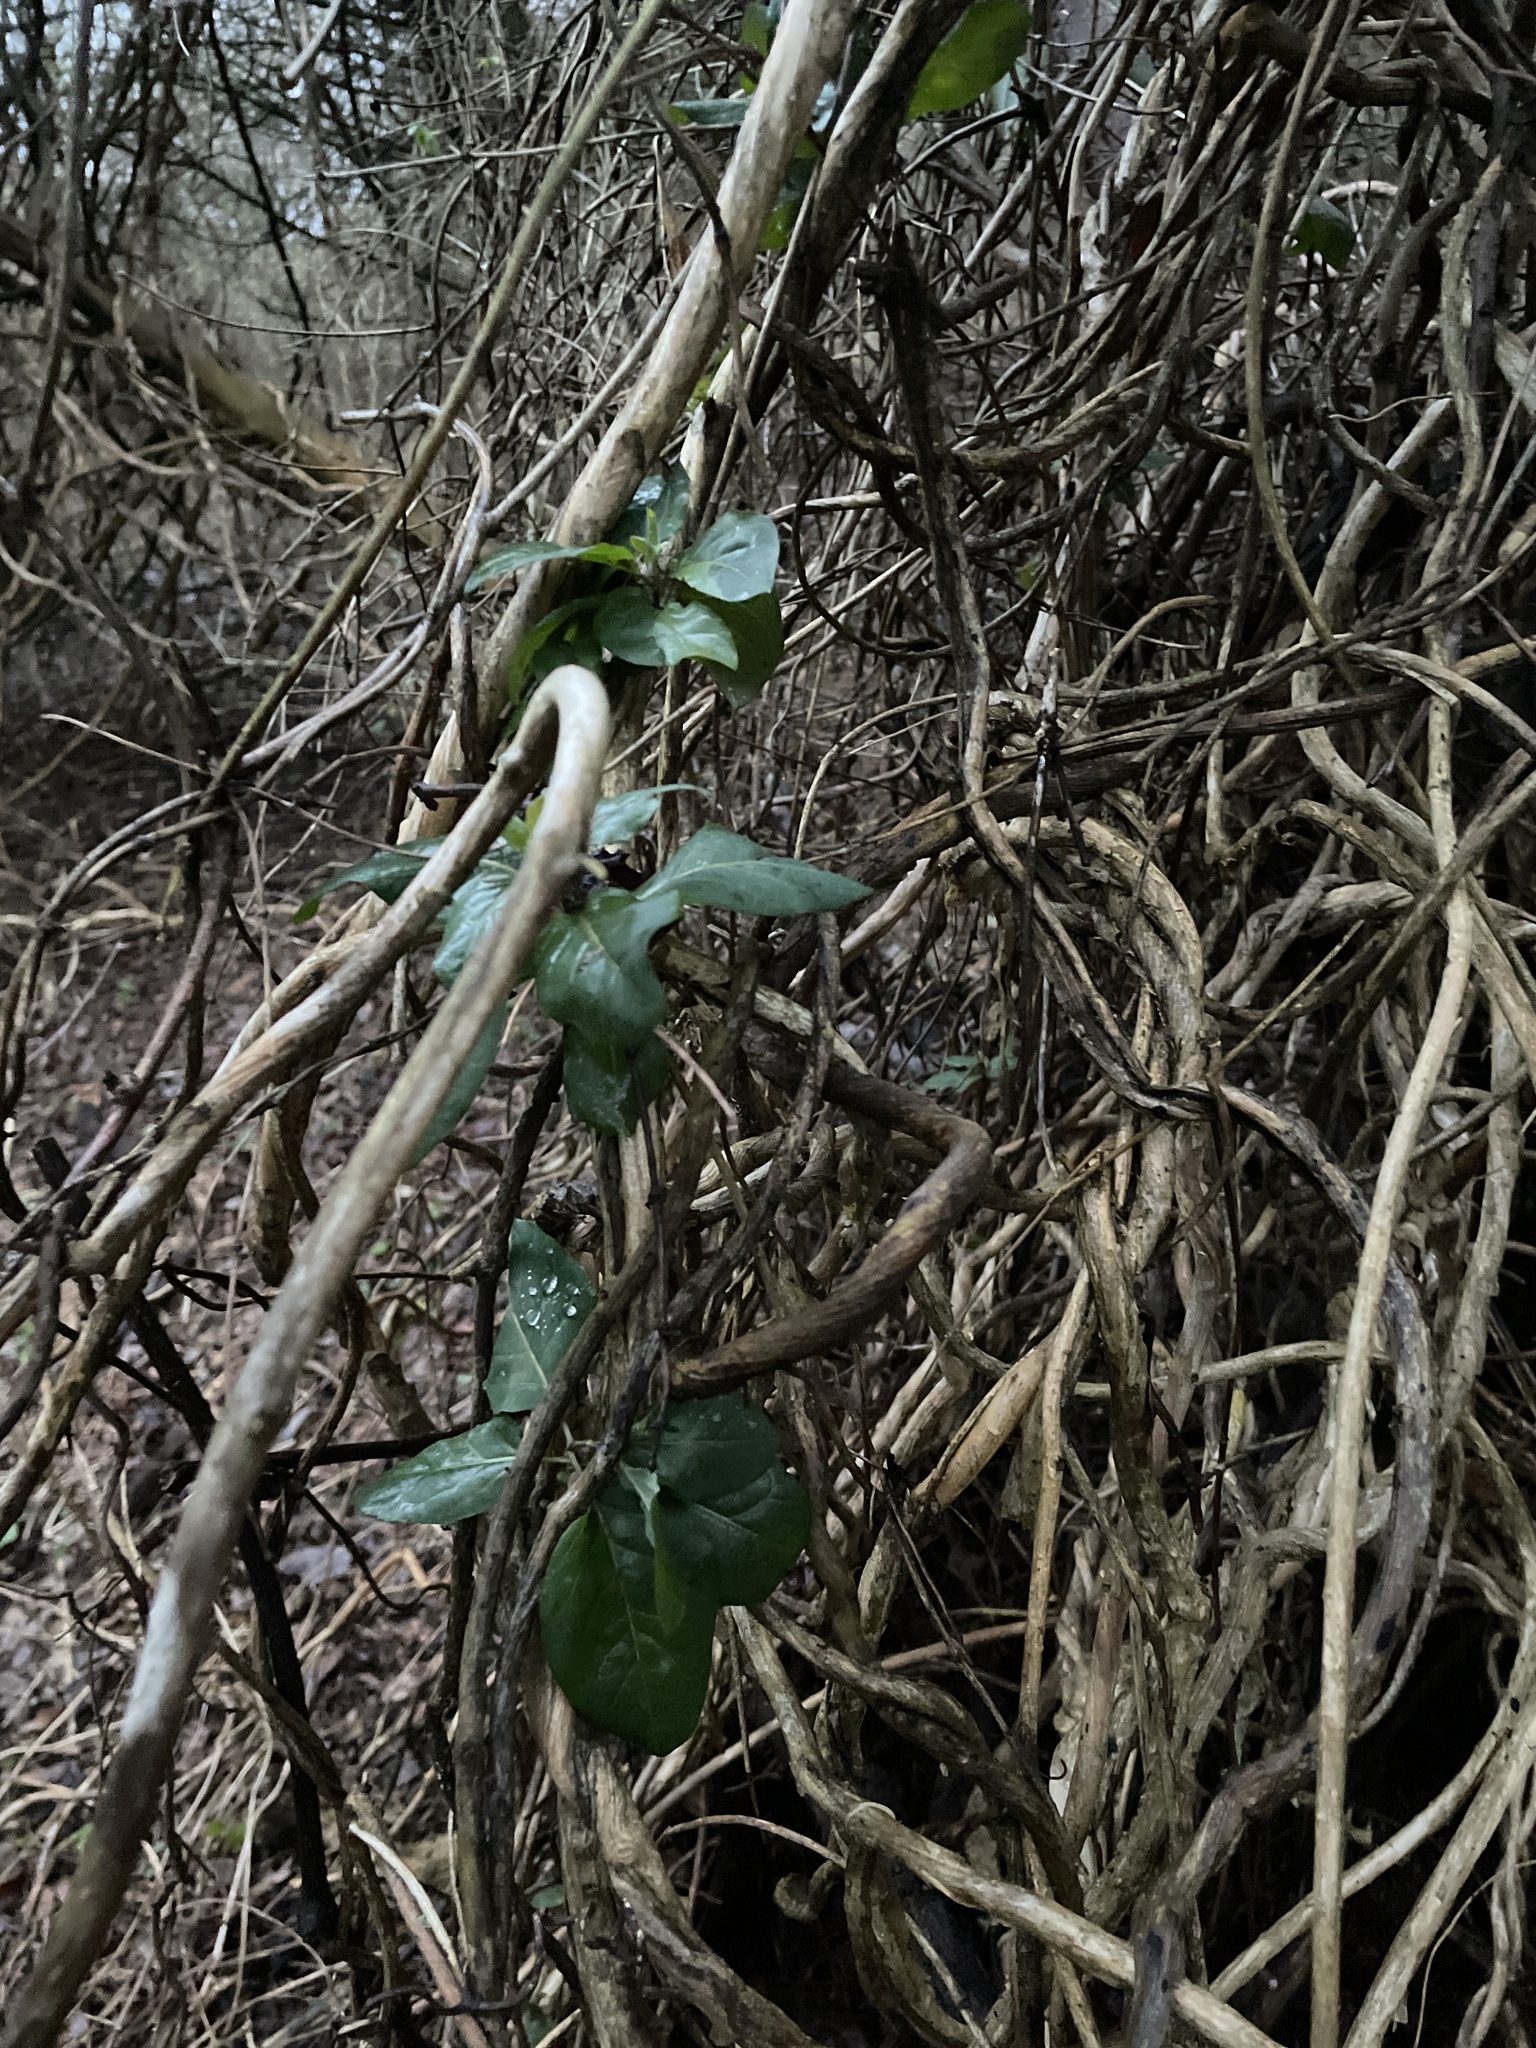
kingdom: Plantae
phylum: Tracheophyta
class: Magnoliopsida
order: Dipsacales
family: Caprifoliaceae
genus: Lonicera
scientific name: Lonicera japonica
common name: Japanese honeysuckle
